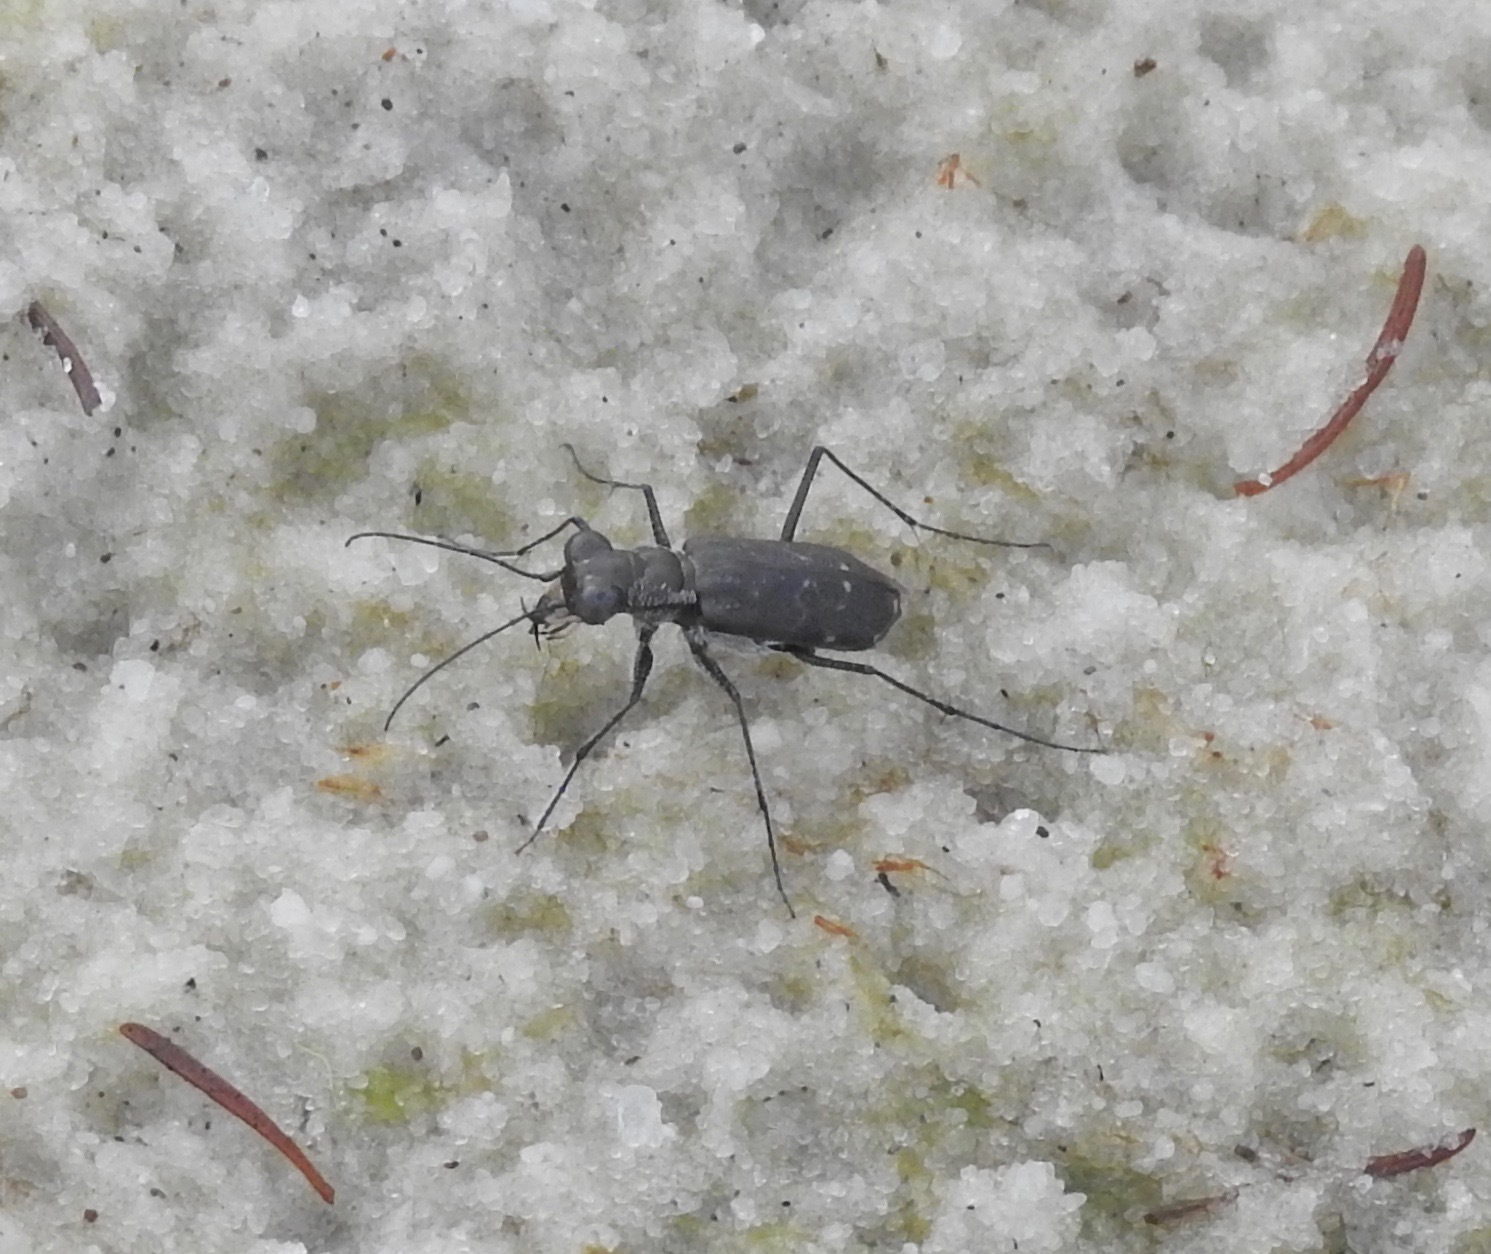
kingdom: Animalia
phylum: Arthropoda
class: Insecta
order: Coleoptera
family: Carabidae
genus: Cicindela
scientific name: Cicindela trifasciata
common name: Mudflat tiger beetle
